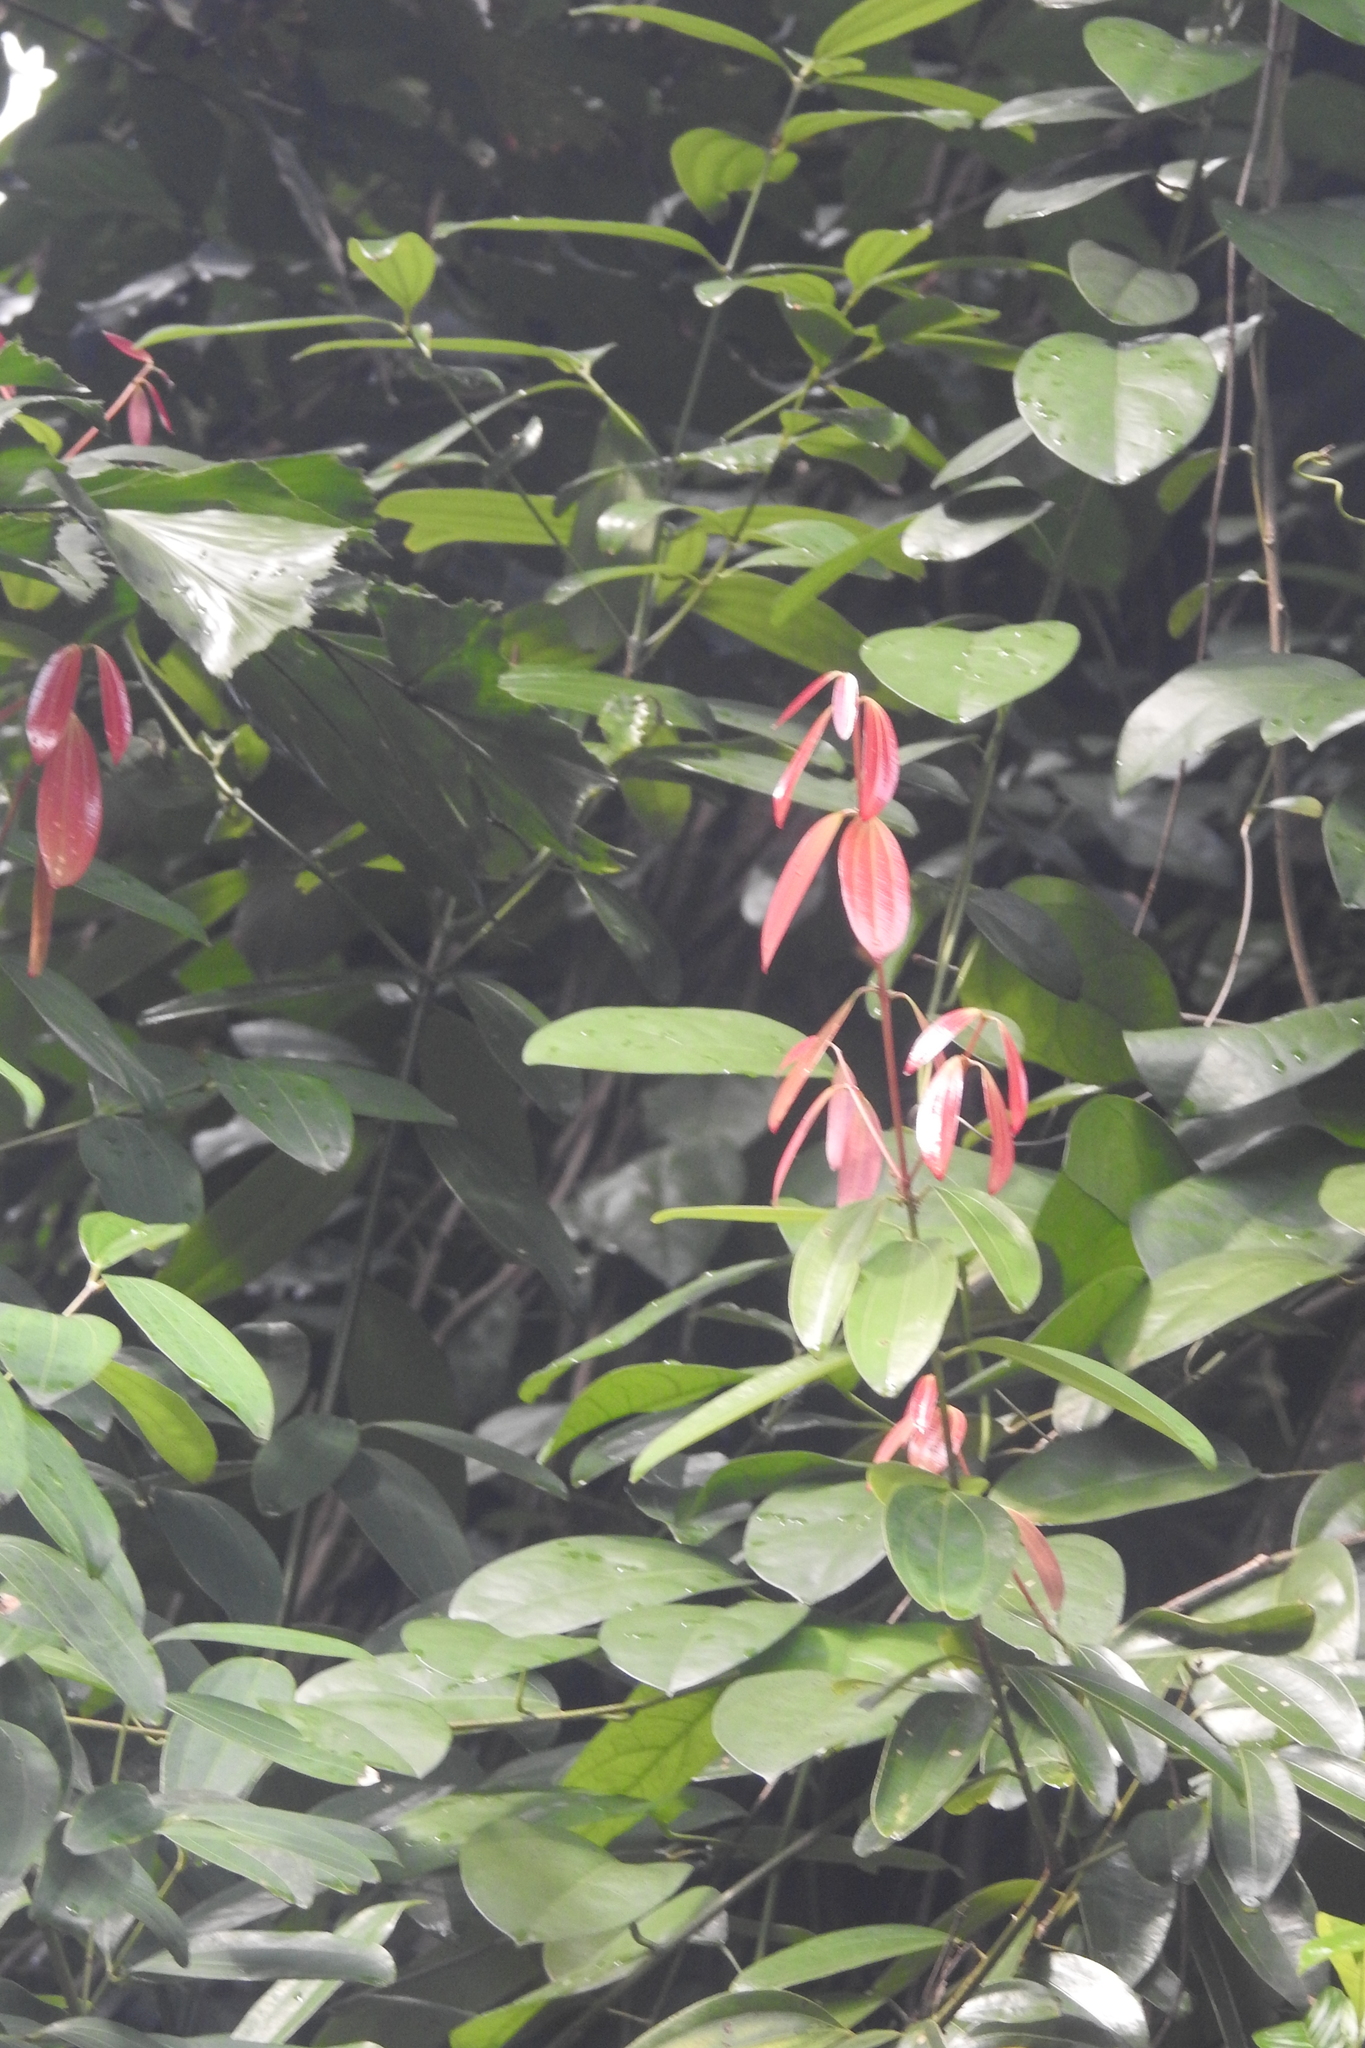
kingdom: Plantae
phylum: Tracheophyta
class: Magnoliopsida
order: Laurales
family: Lauraceae
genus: Cinnamomum
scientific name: Cinnamomum iners
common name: Wild cinnamon
